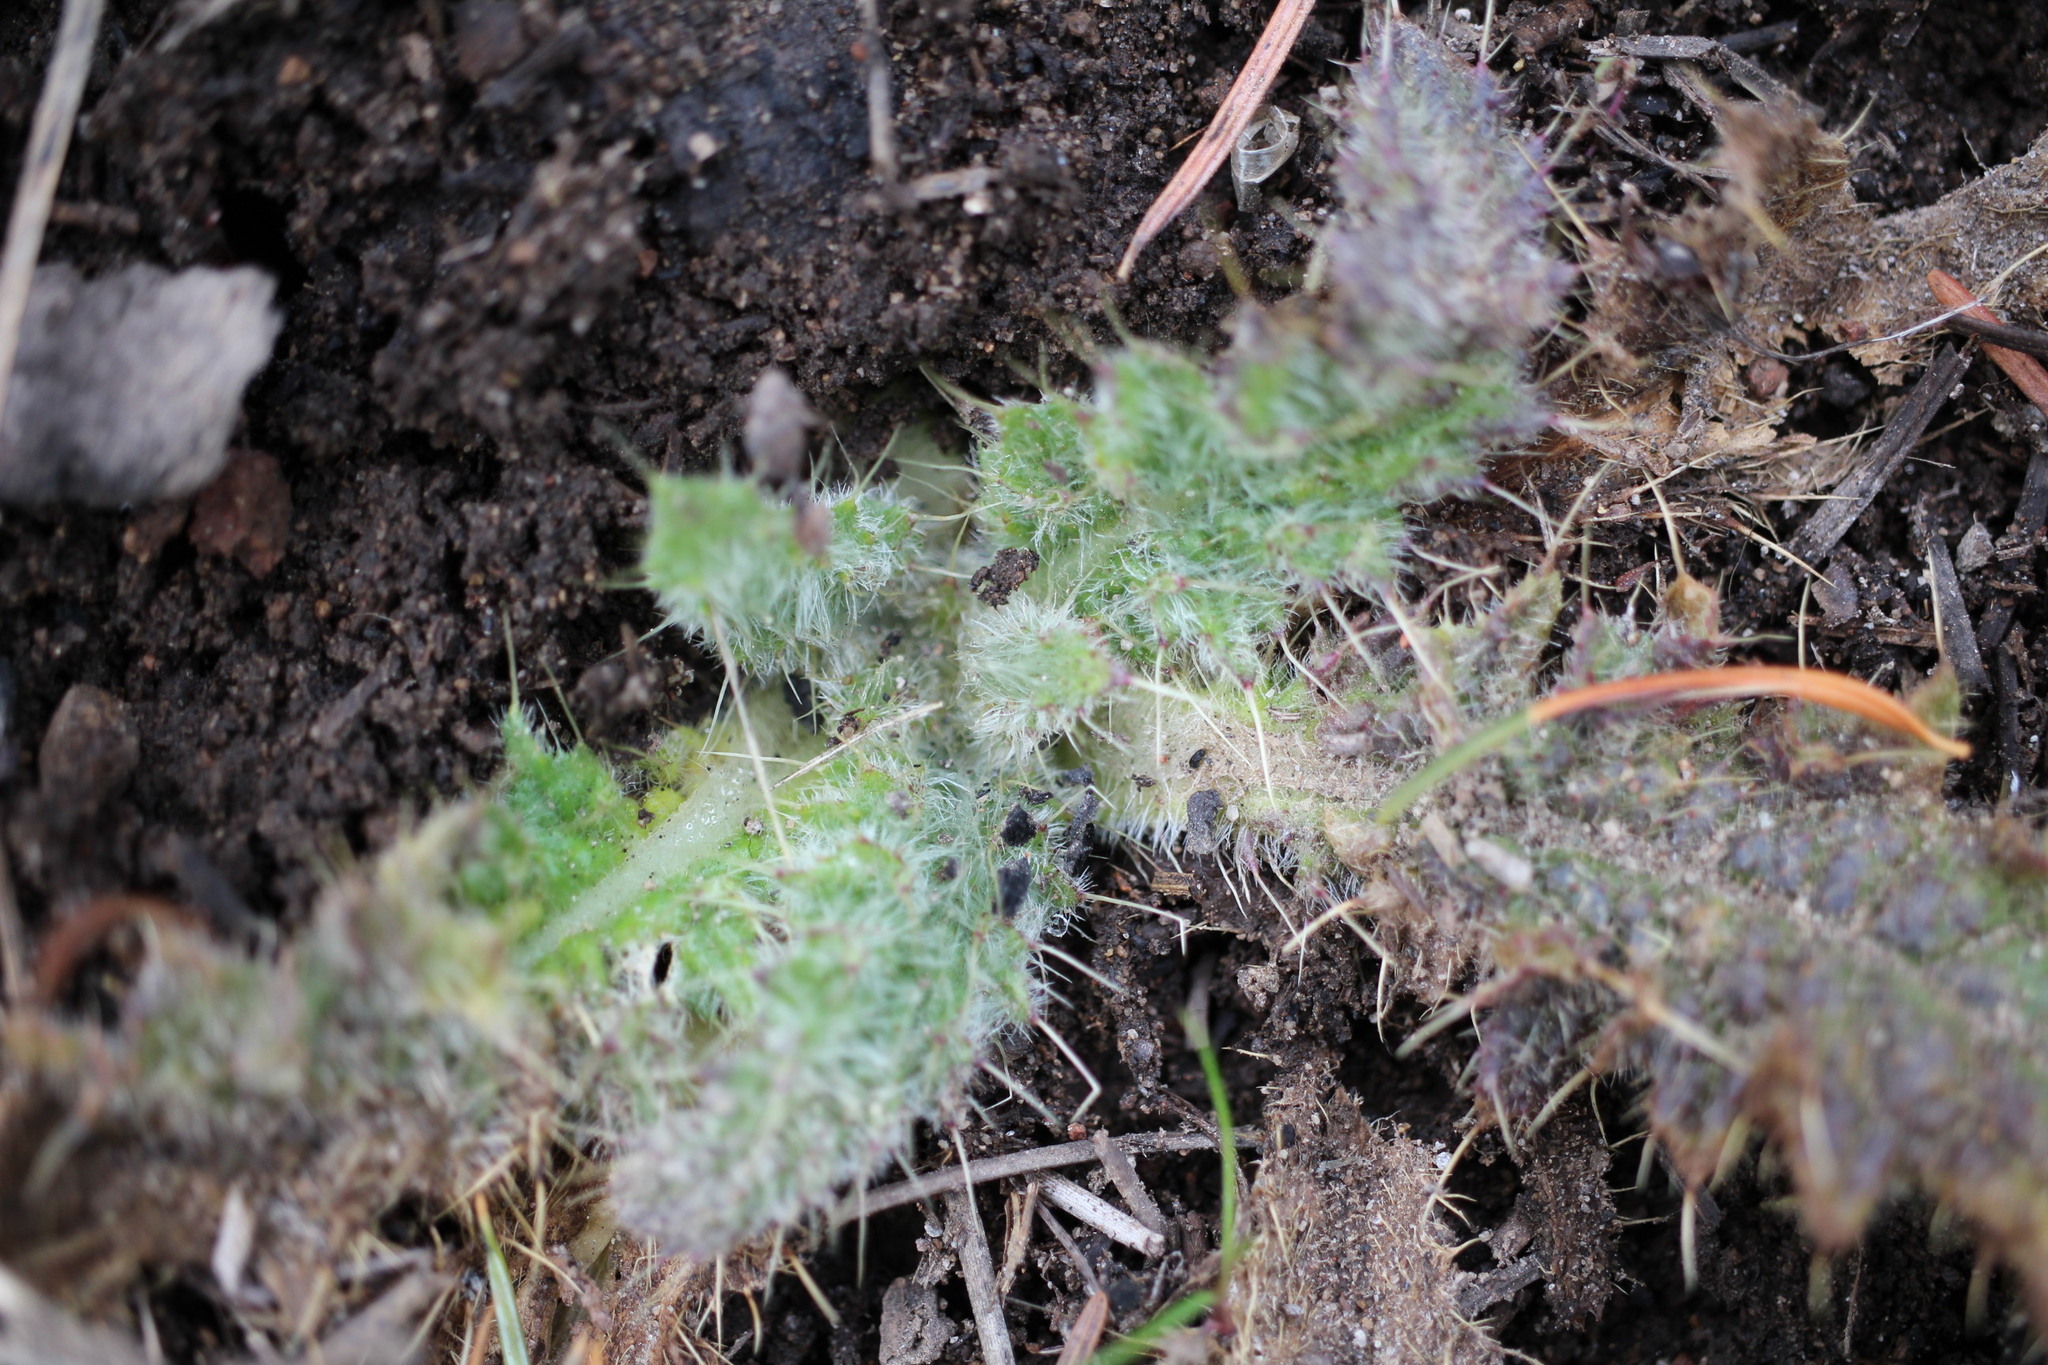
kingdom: Plantae
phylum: Tracheophyta
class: Magnoliopsida
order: Asterales
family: Asteraceae
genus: Cirsium
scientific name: Cirsium vulgare
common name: Bull thistle
